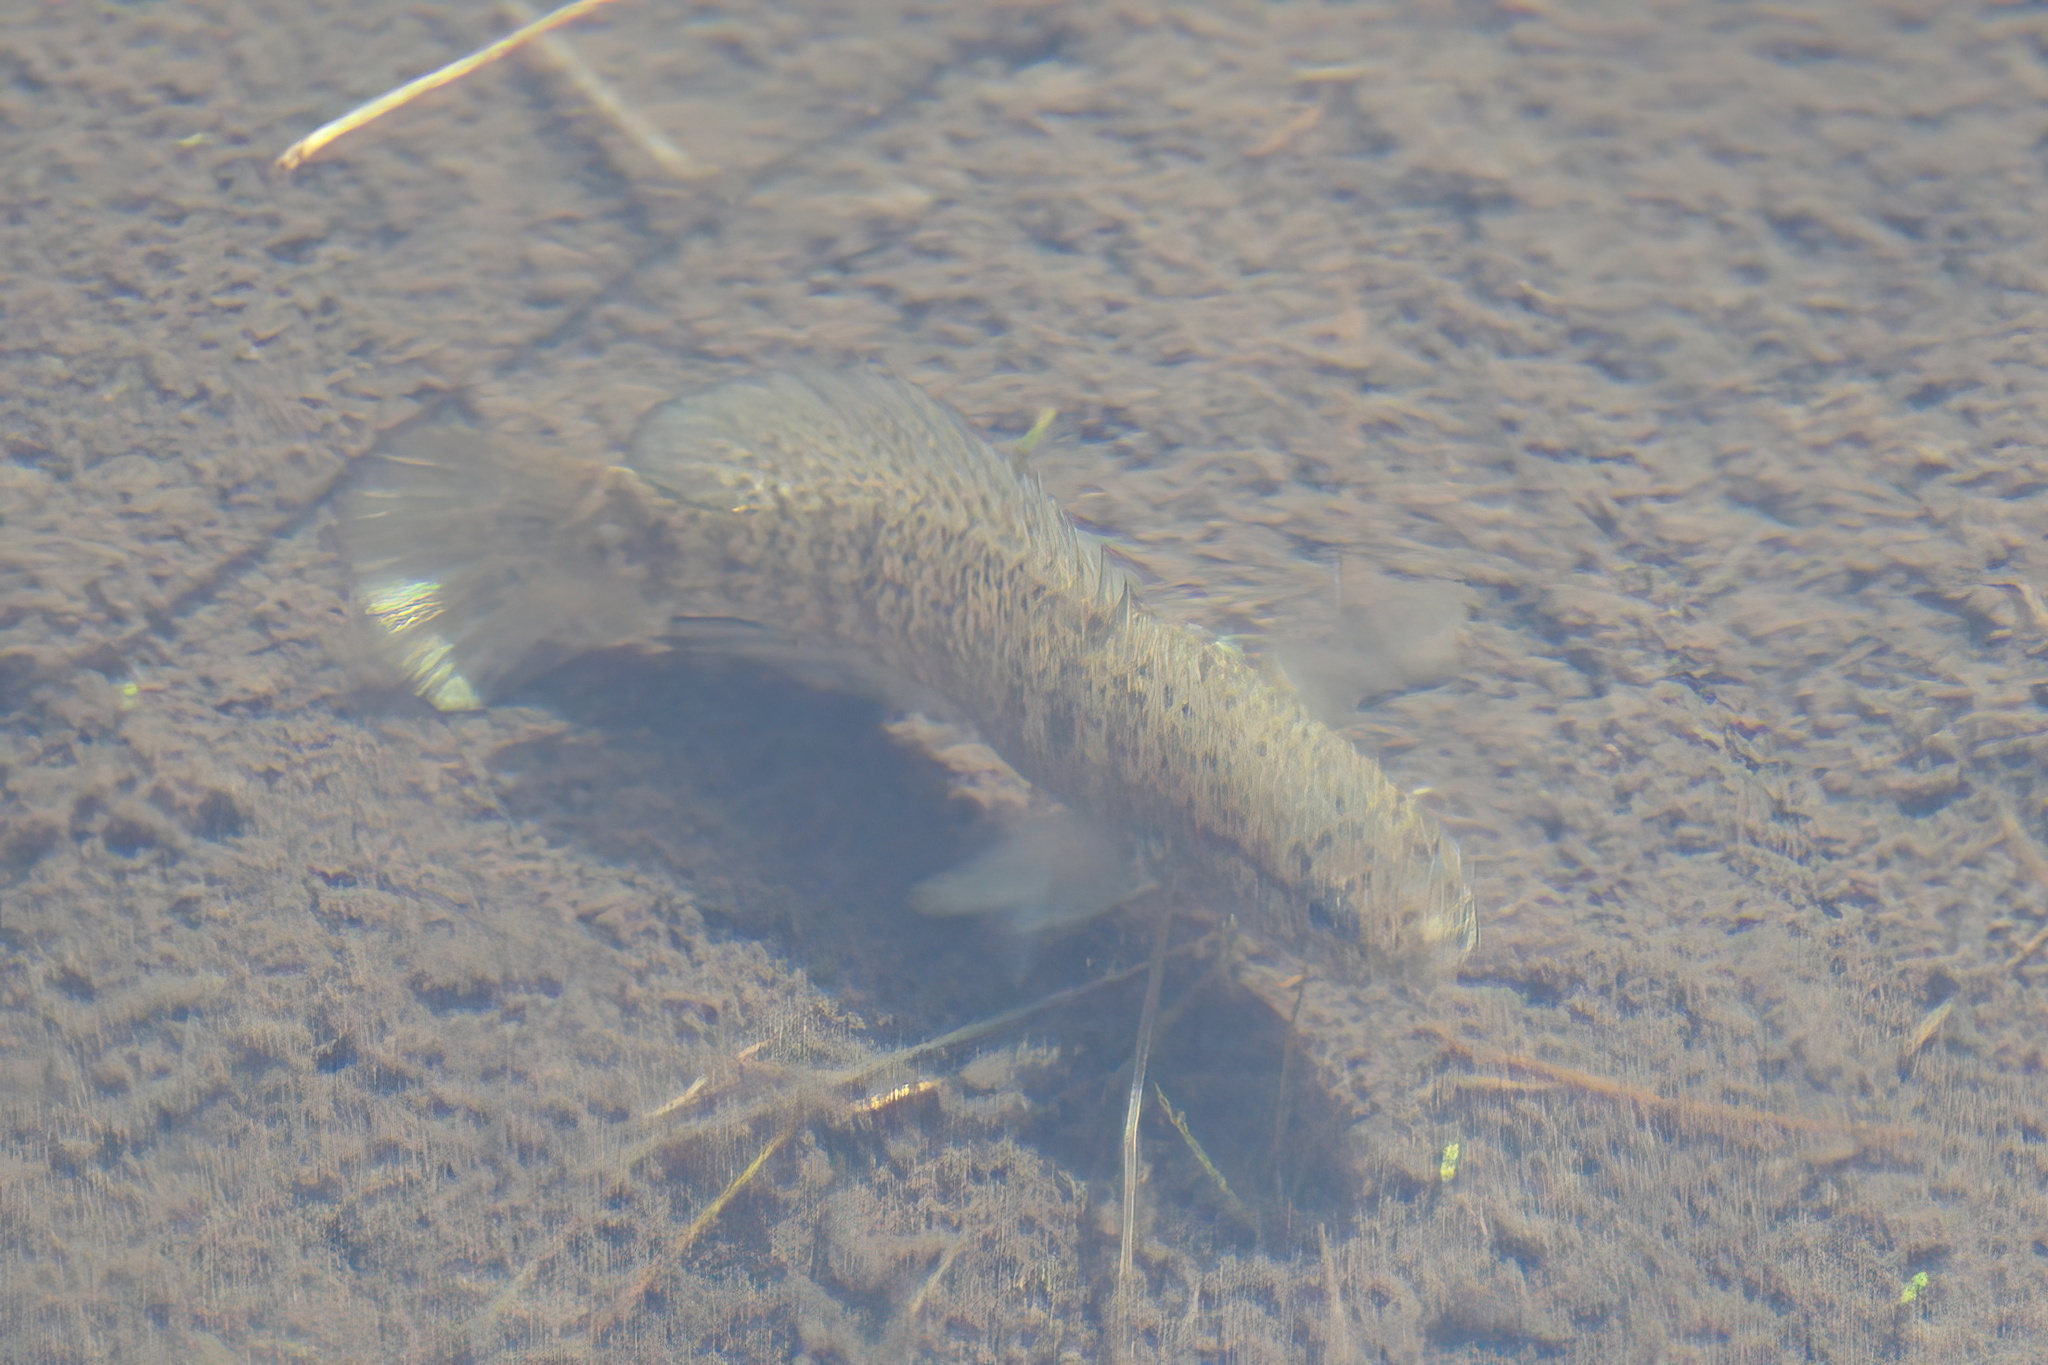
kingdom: Animalia
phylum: Chordata
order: Perciformes
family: Elassomatidae
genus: Elassoma
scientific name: Elassoma zonatum
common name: Banded pygmy sunfish
